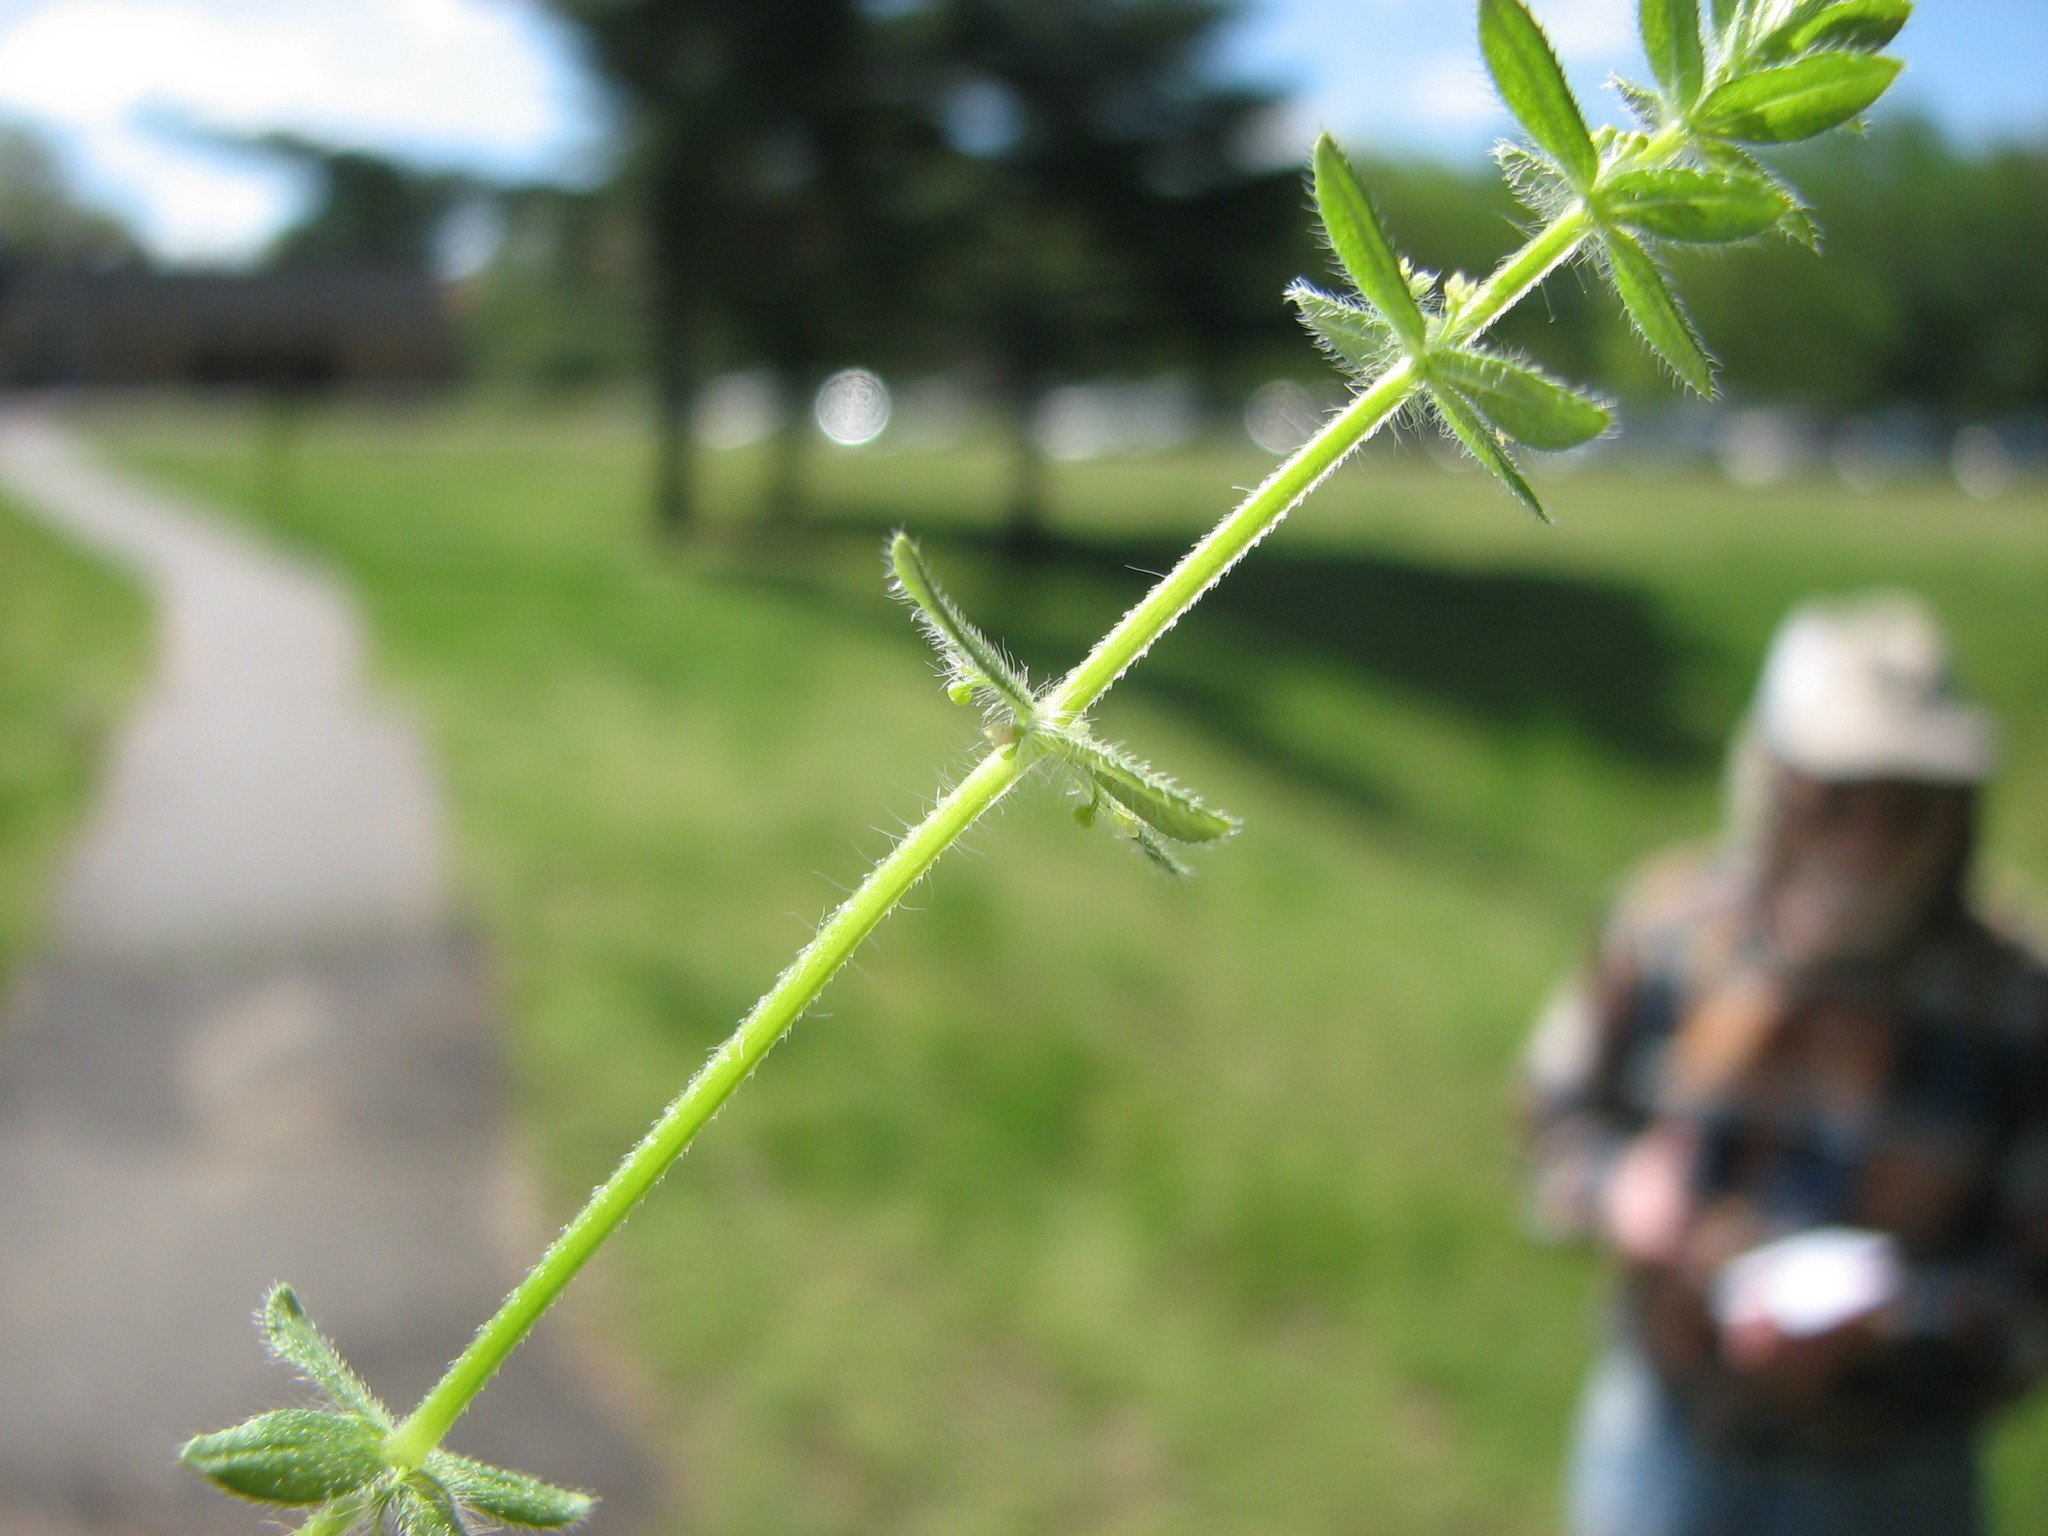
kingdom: Plantae
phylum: Tracheophyta
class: Magnoliopsida
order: Gentianales
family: Rubiaceae
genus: Cruciata
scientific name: Cruciata pedemontana
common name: Piedmont bedstraw
